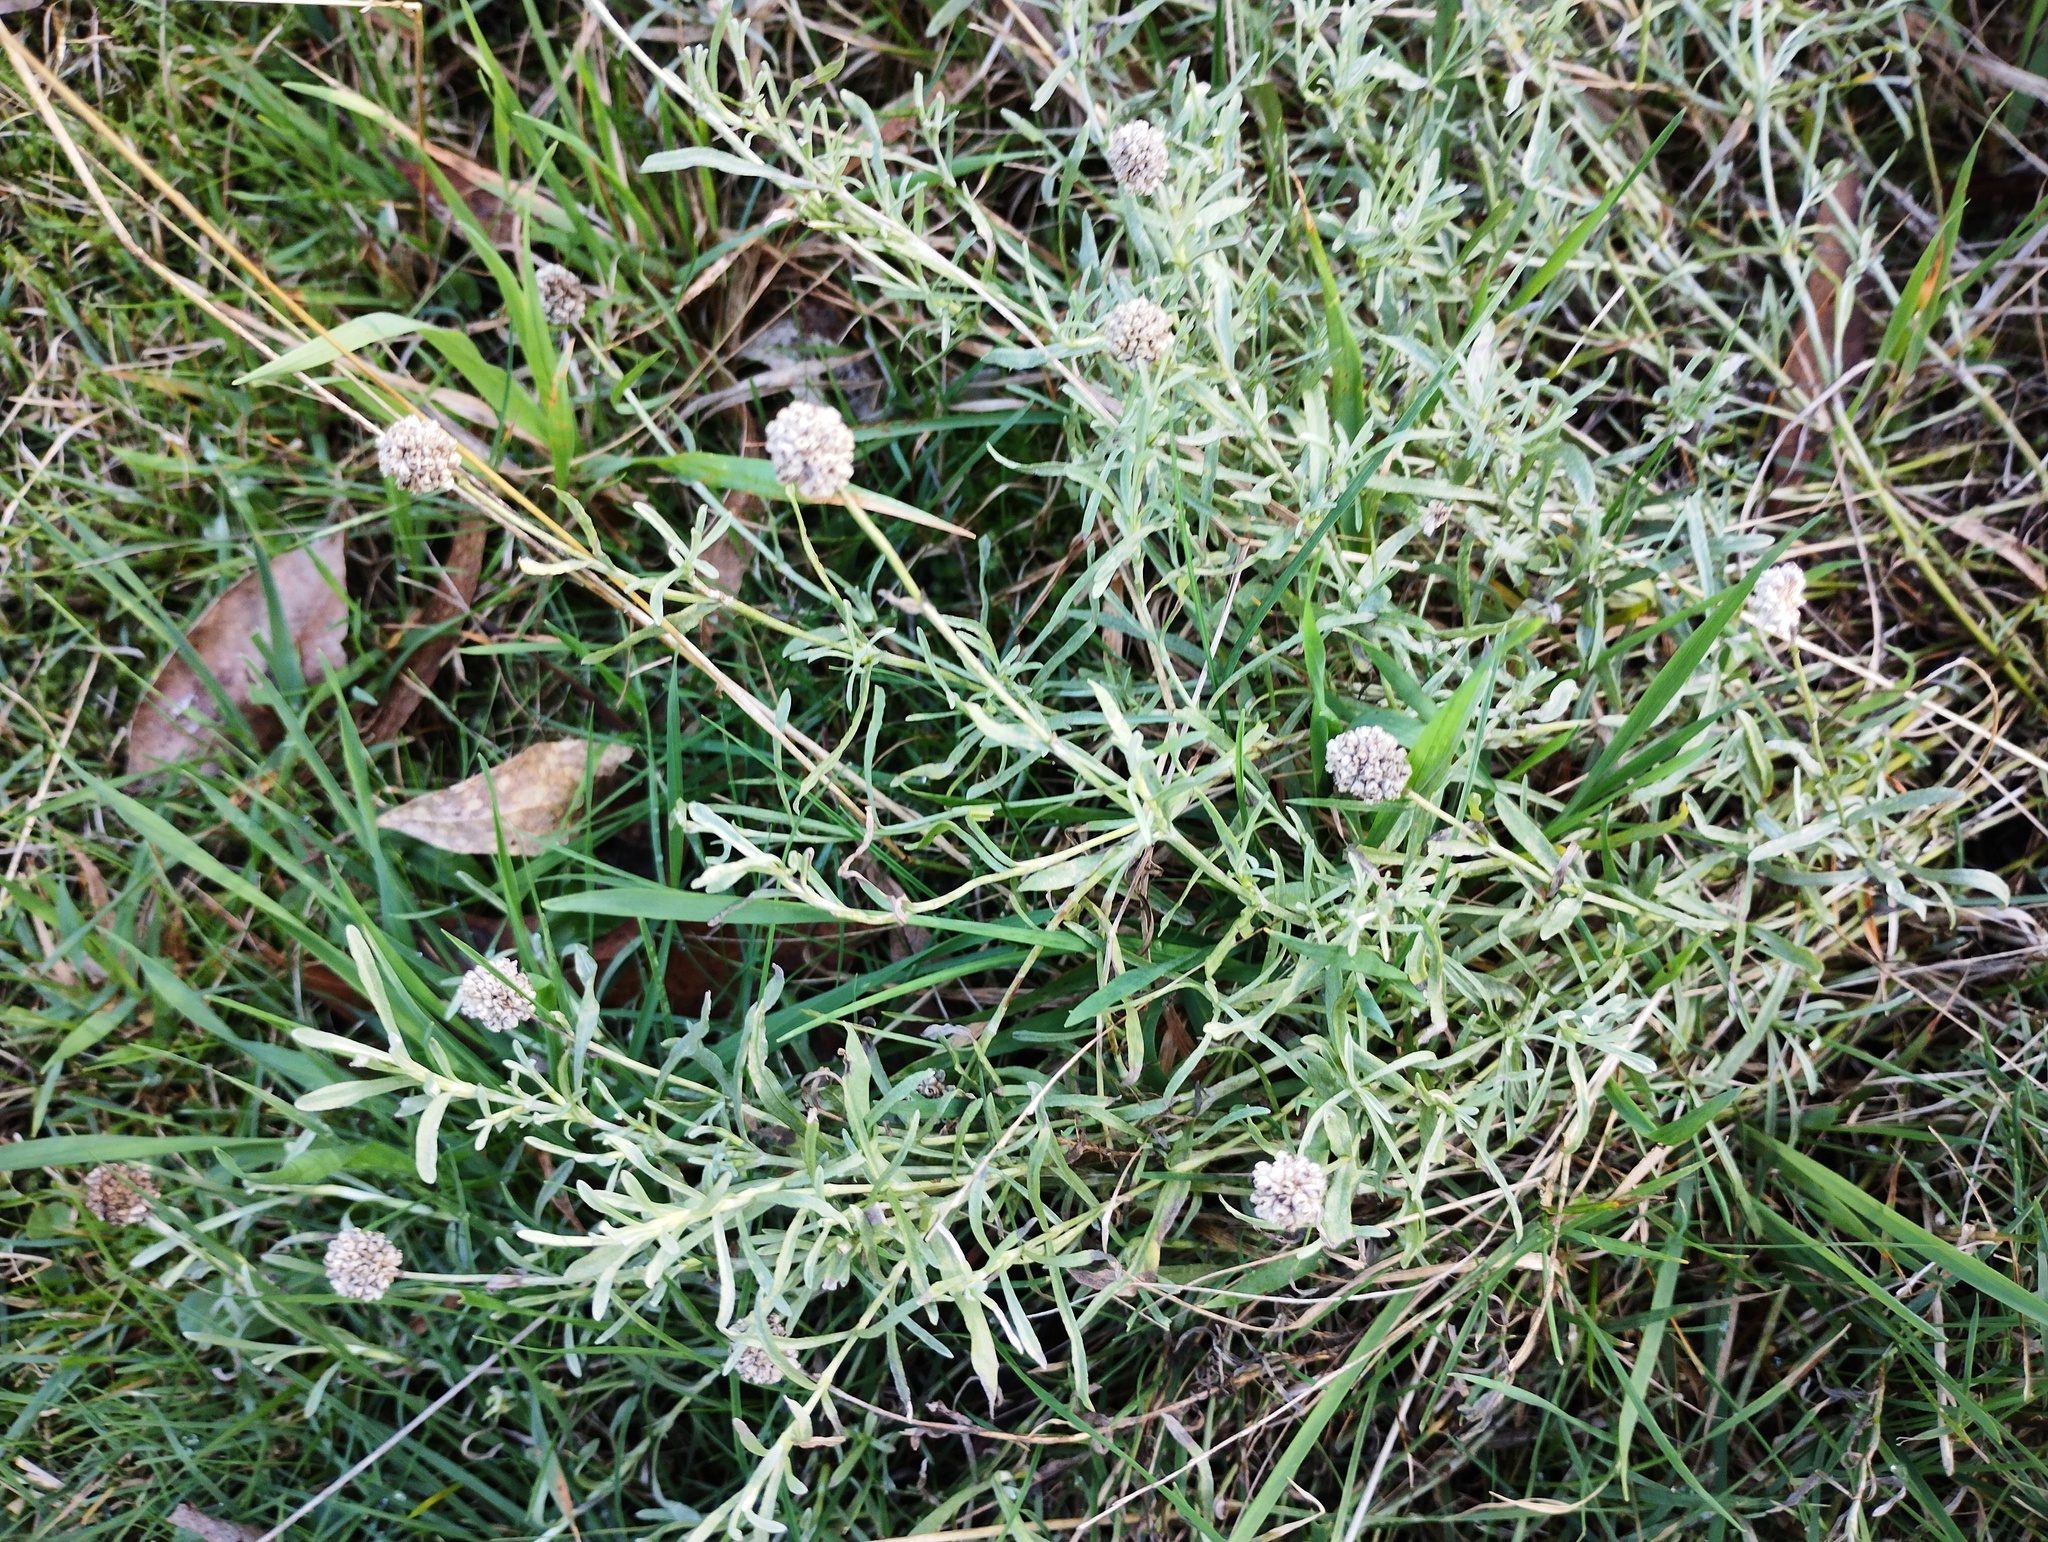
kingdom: Plantae
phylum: Tracheophyta
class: Magnoliopsida
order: Asterales
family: Asteraceae
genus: Calocephalus
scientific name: Calocephalus lacteus
